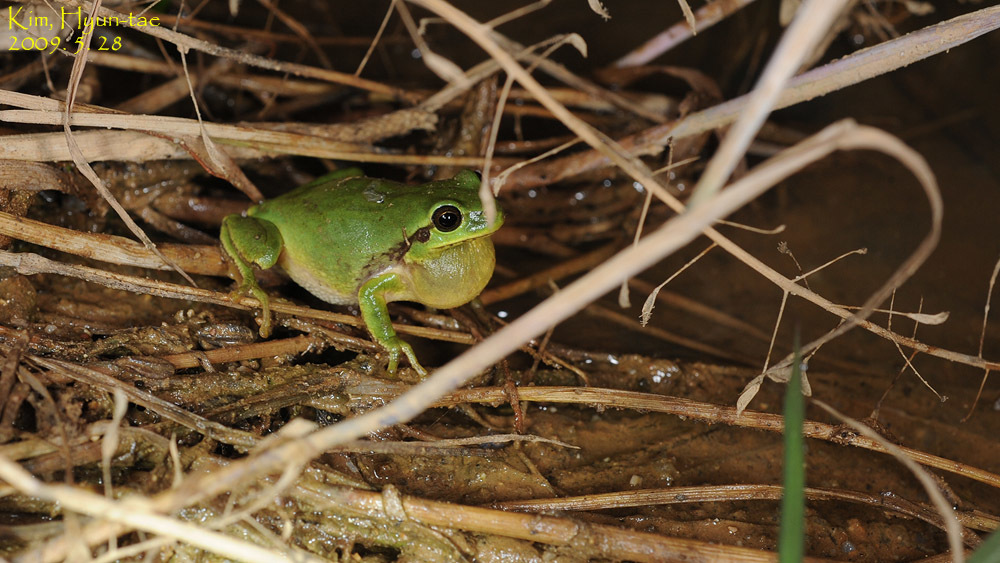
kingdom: Animalia
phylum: Chordata
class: Amphibia
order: Anura
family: Hylidae
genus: Dryophytes
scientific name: Dryophytes immaculatus
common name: North china treefrog
